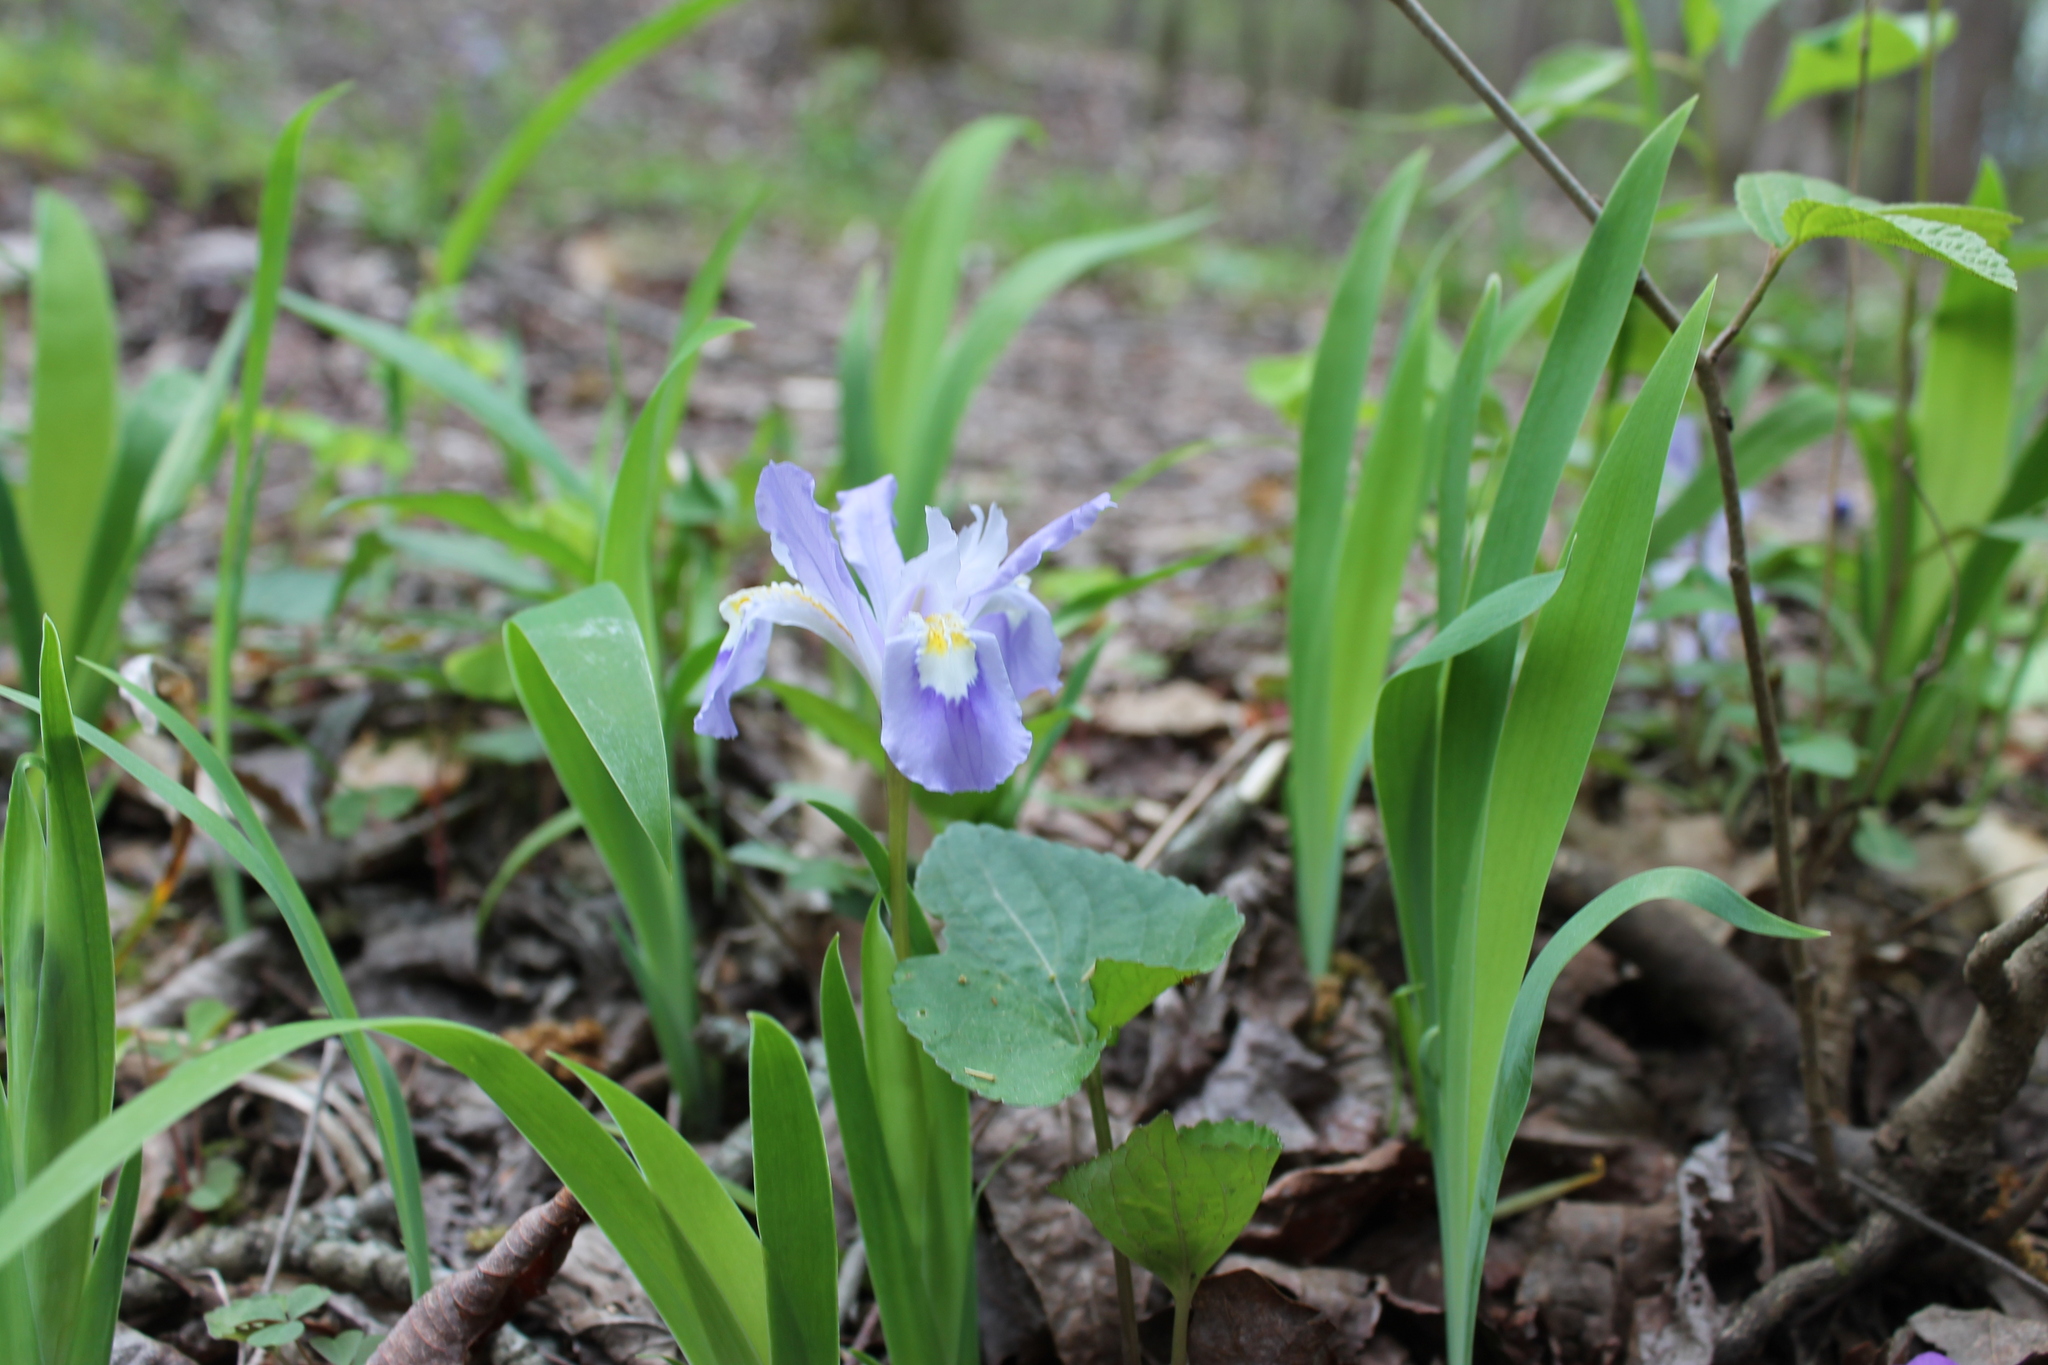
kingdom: Plantae
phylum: Tracheophyta
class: Liliopsida
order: Asparagales
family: Iridaceae
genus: Iris
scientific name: Iris cristata
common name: Crested iris
